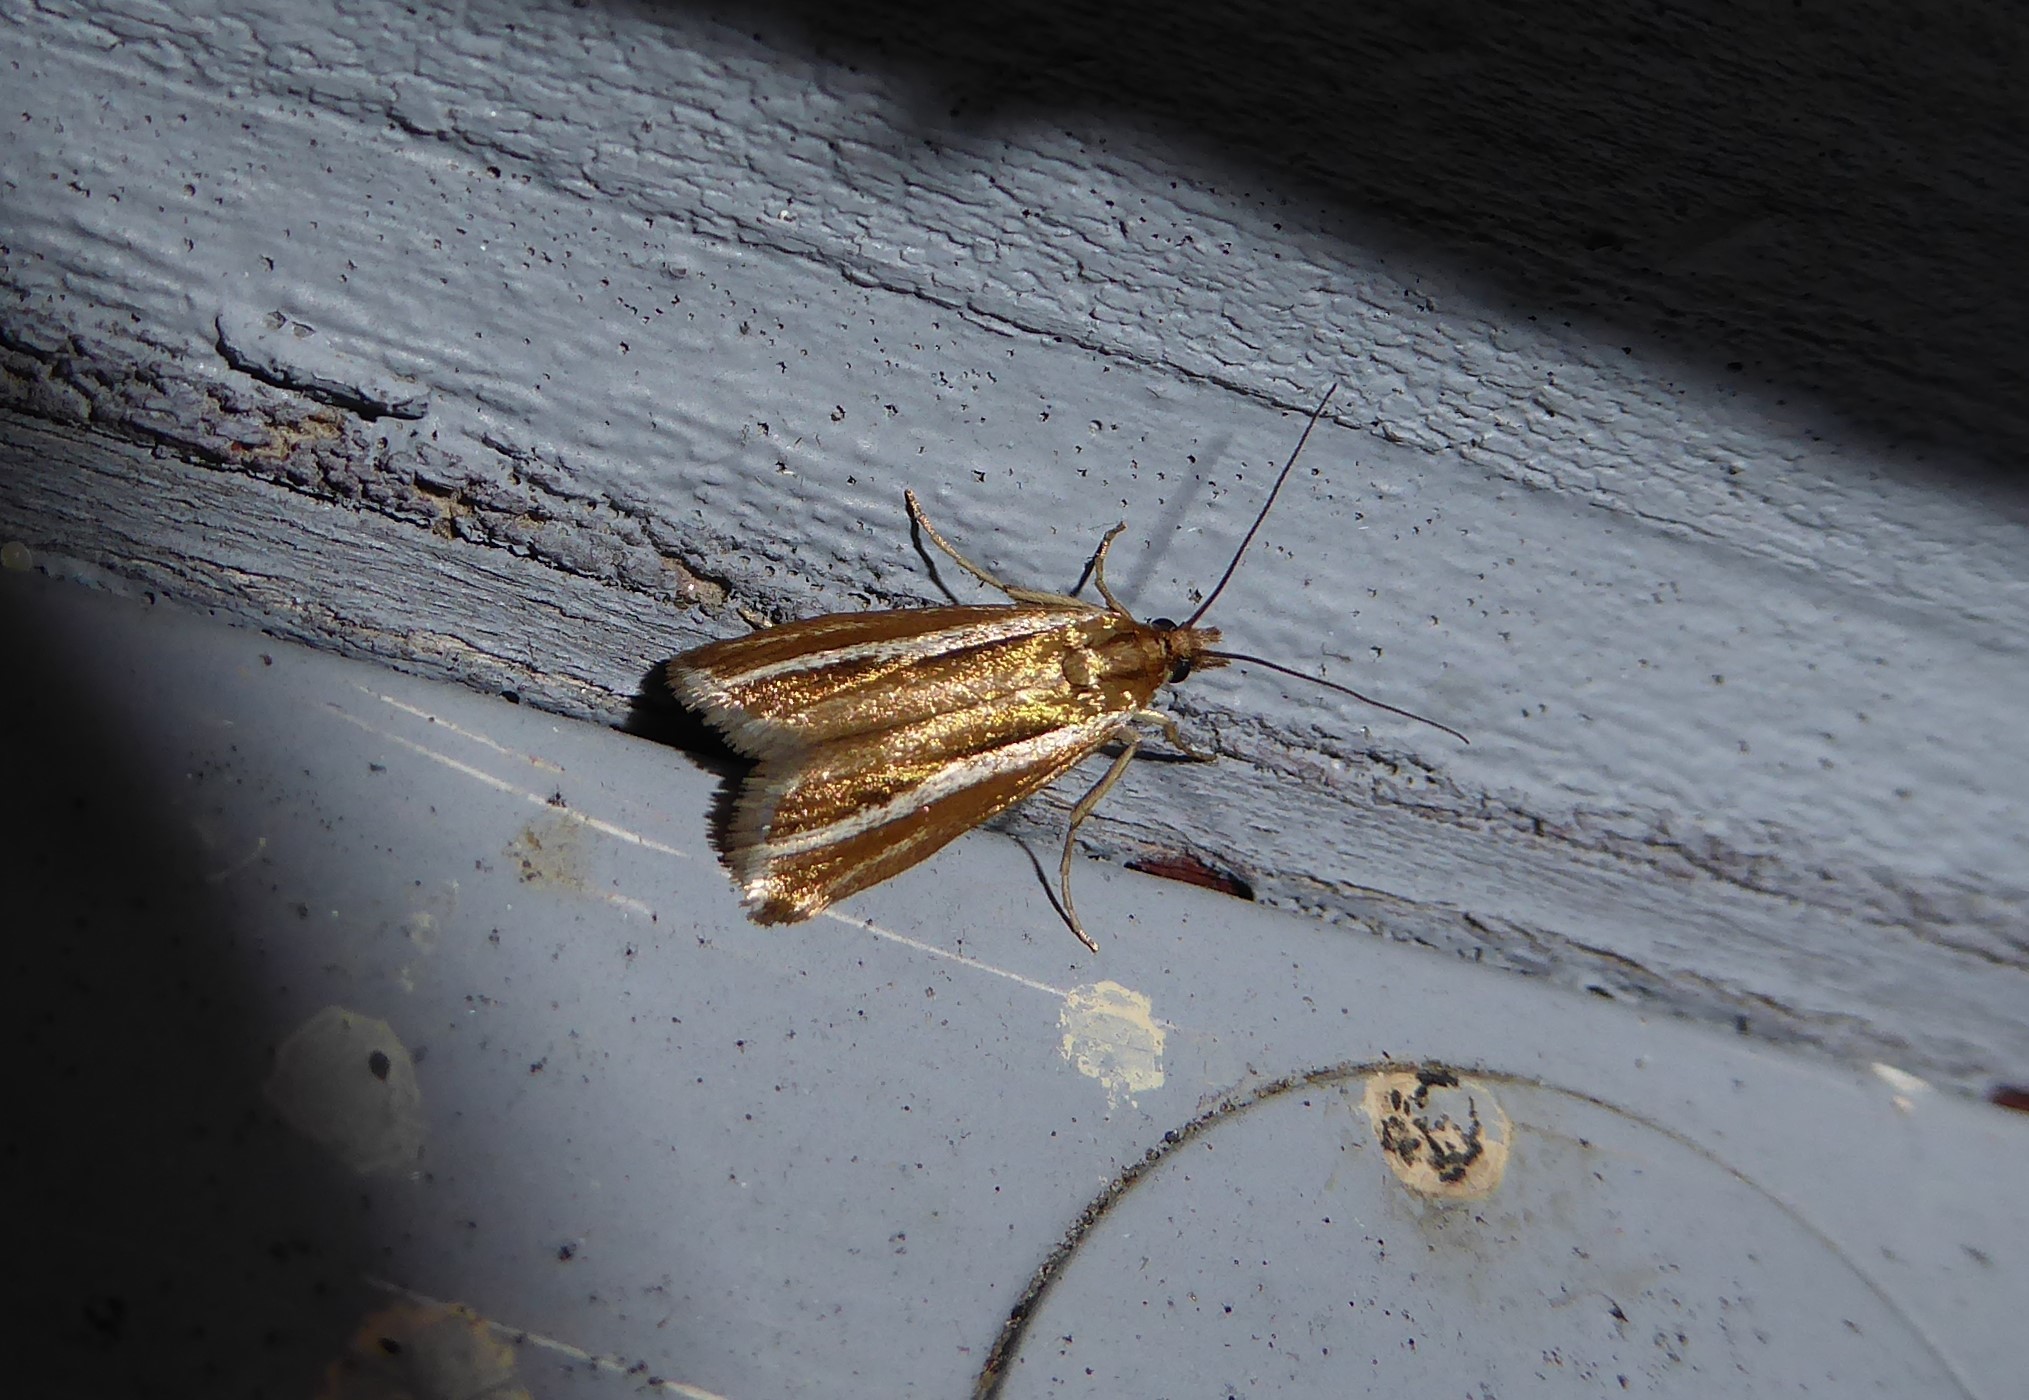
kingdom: Animalia
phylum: Arthropoda
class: Insecta
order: Lepidoptera
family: Crambidae
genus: Orocrambus
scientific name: Orocrambus aethonellus
